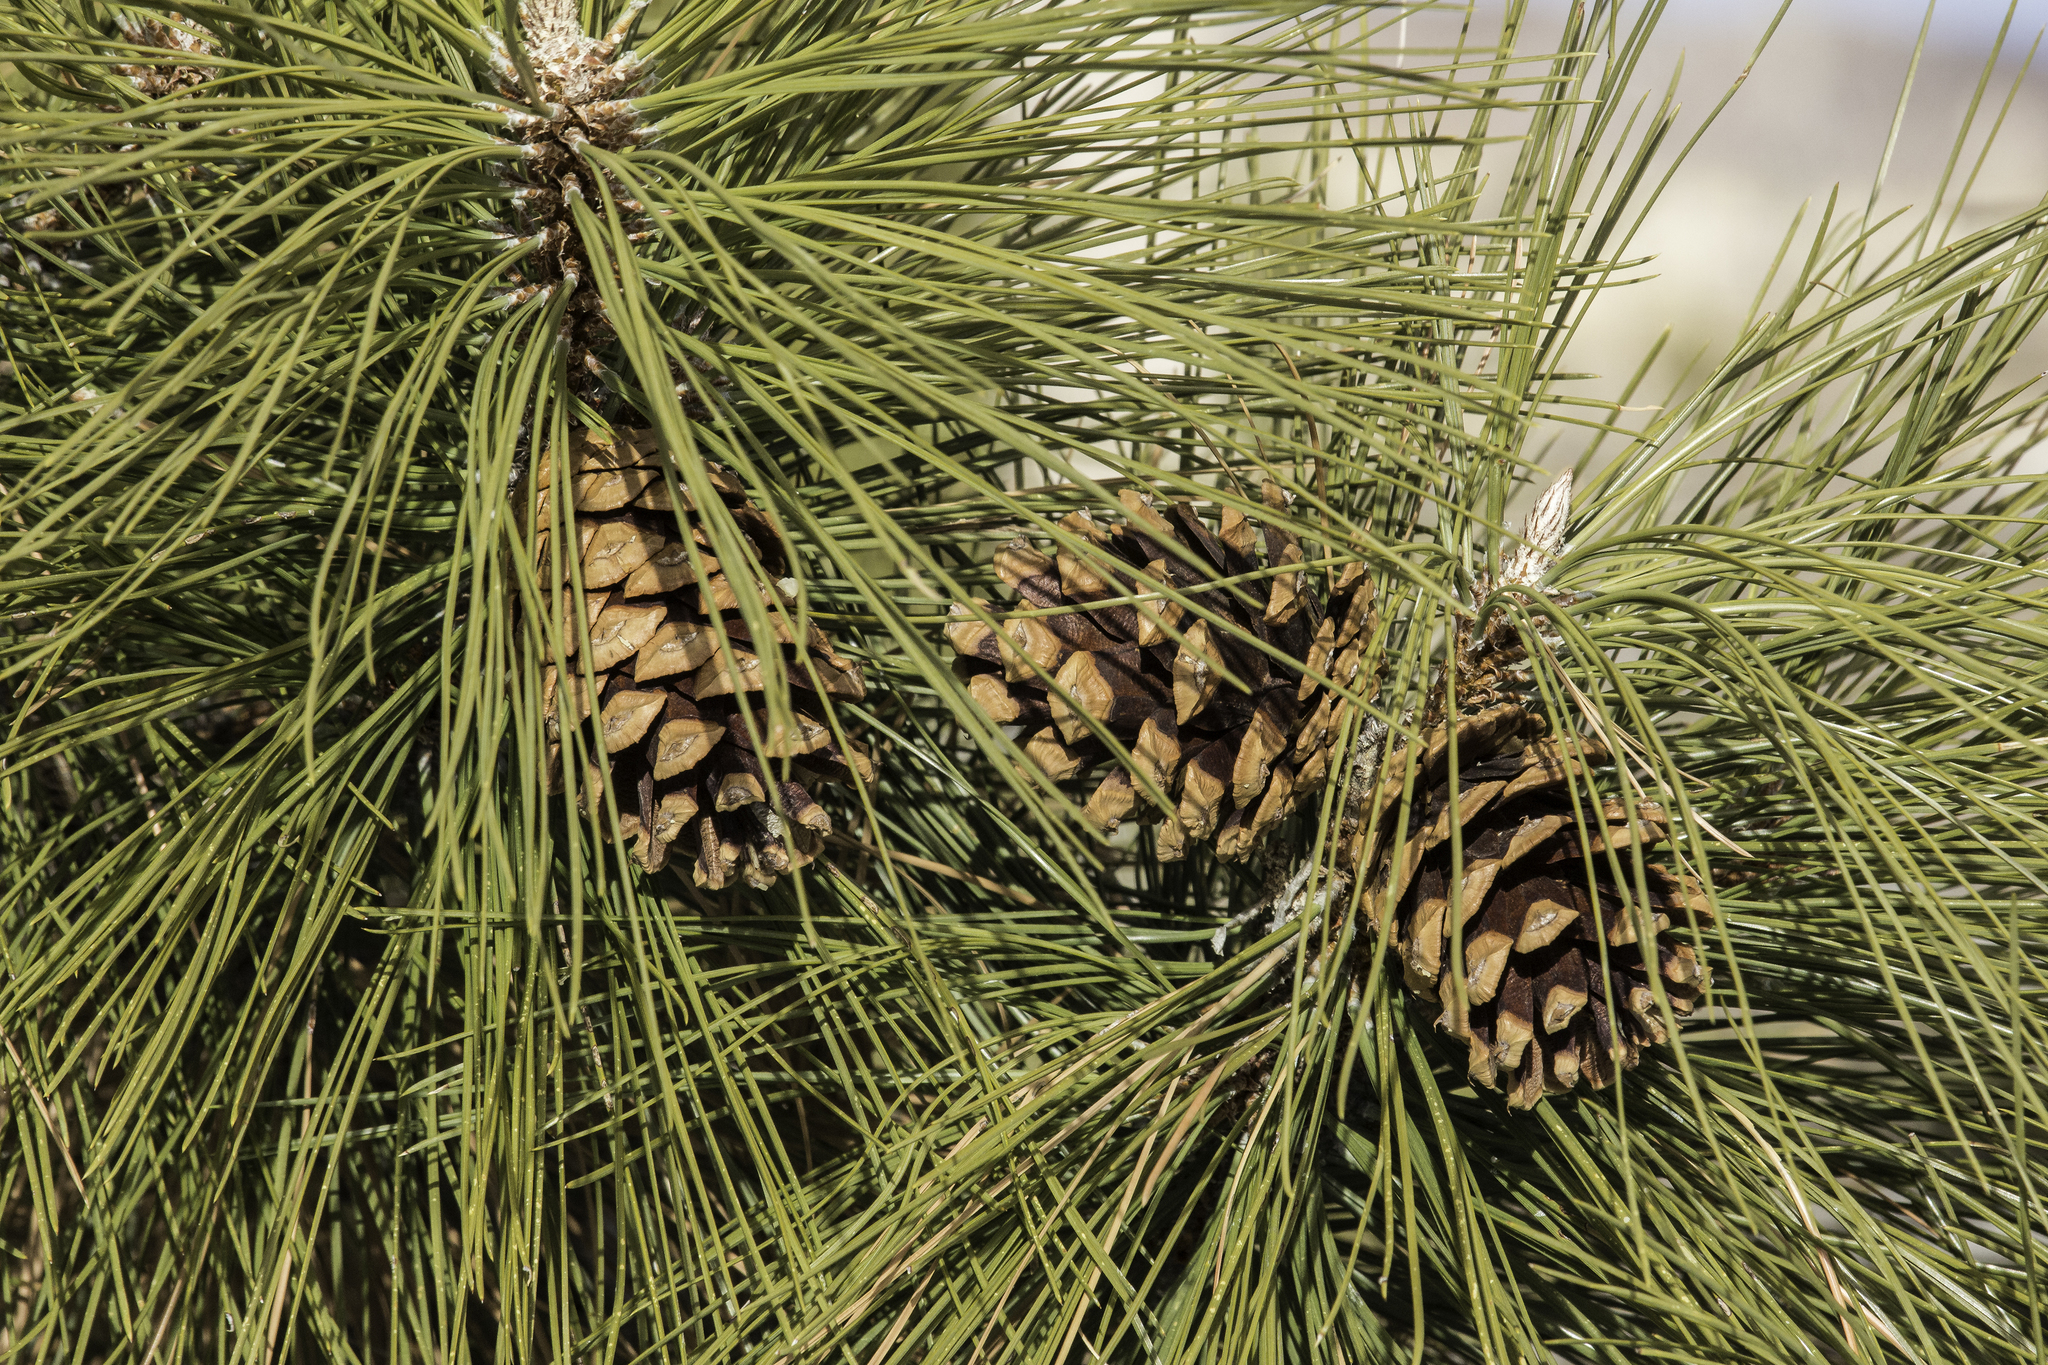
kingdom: Plantae
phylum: Tracheophyta
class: Pinopsida
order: Pinales
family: Pinaceae
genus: Pinus
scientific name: Pinus ponderosa
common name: Western yellow-pine
